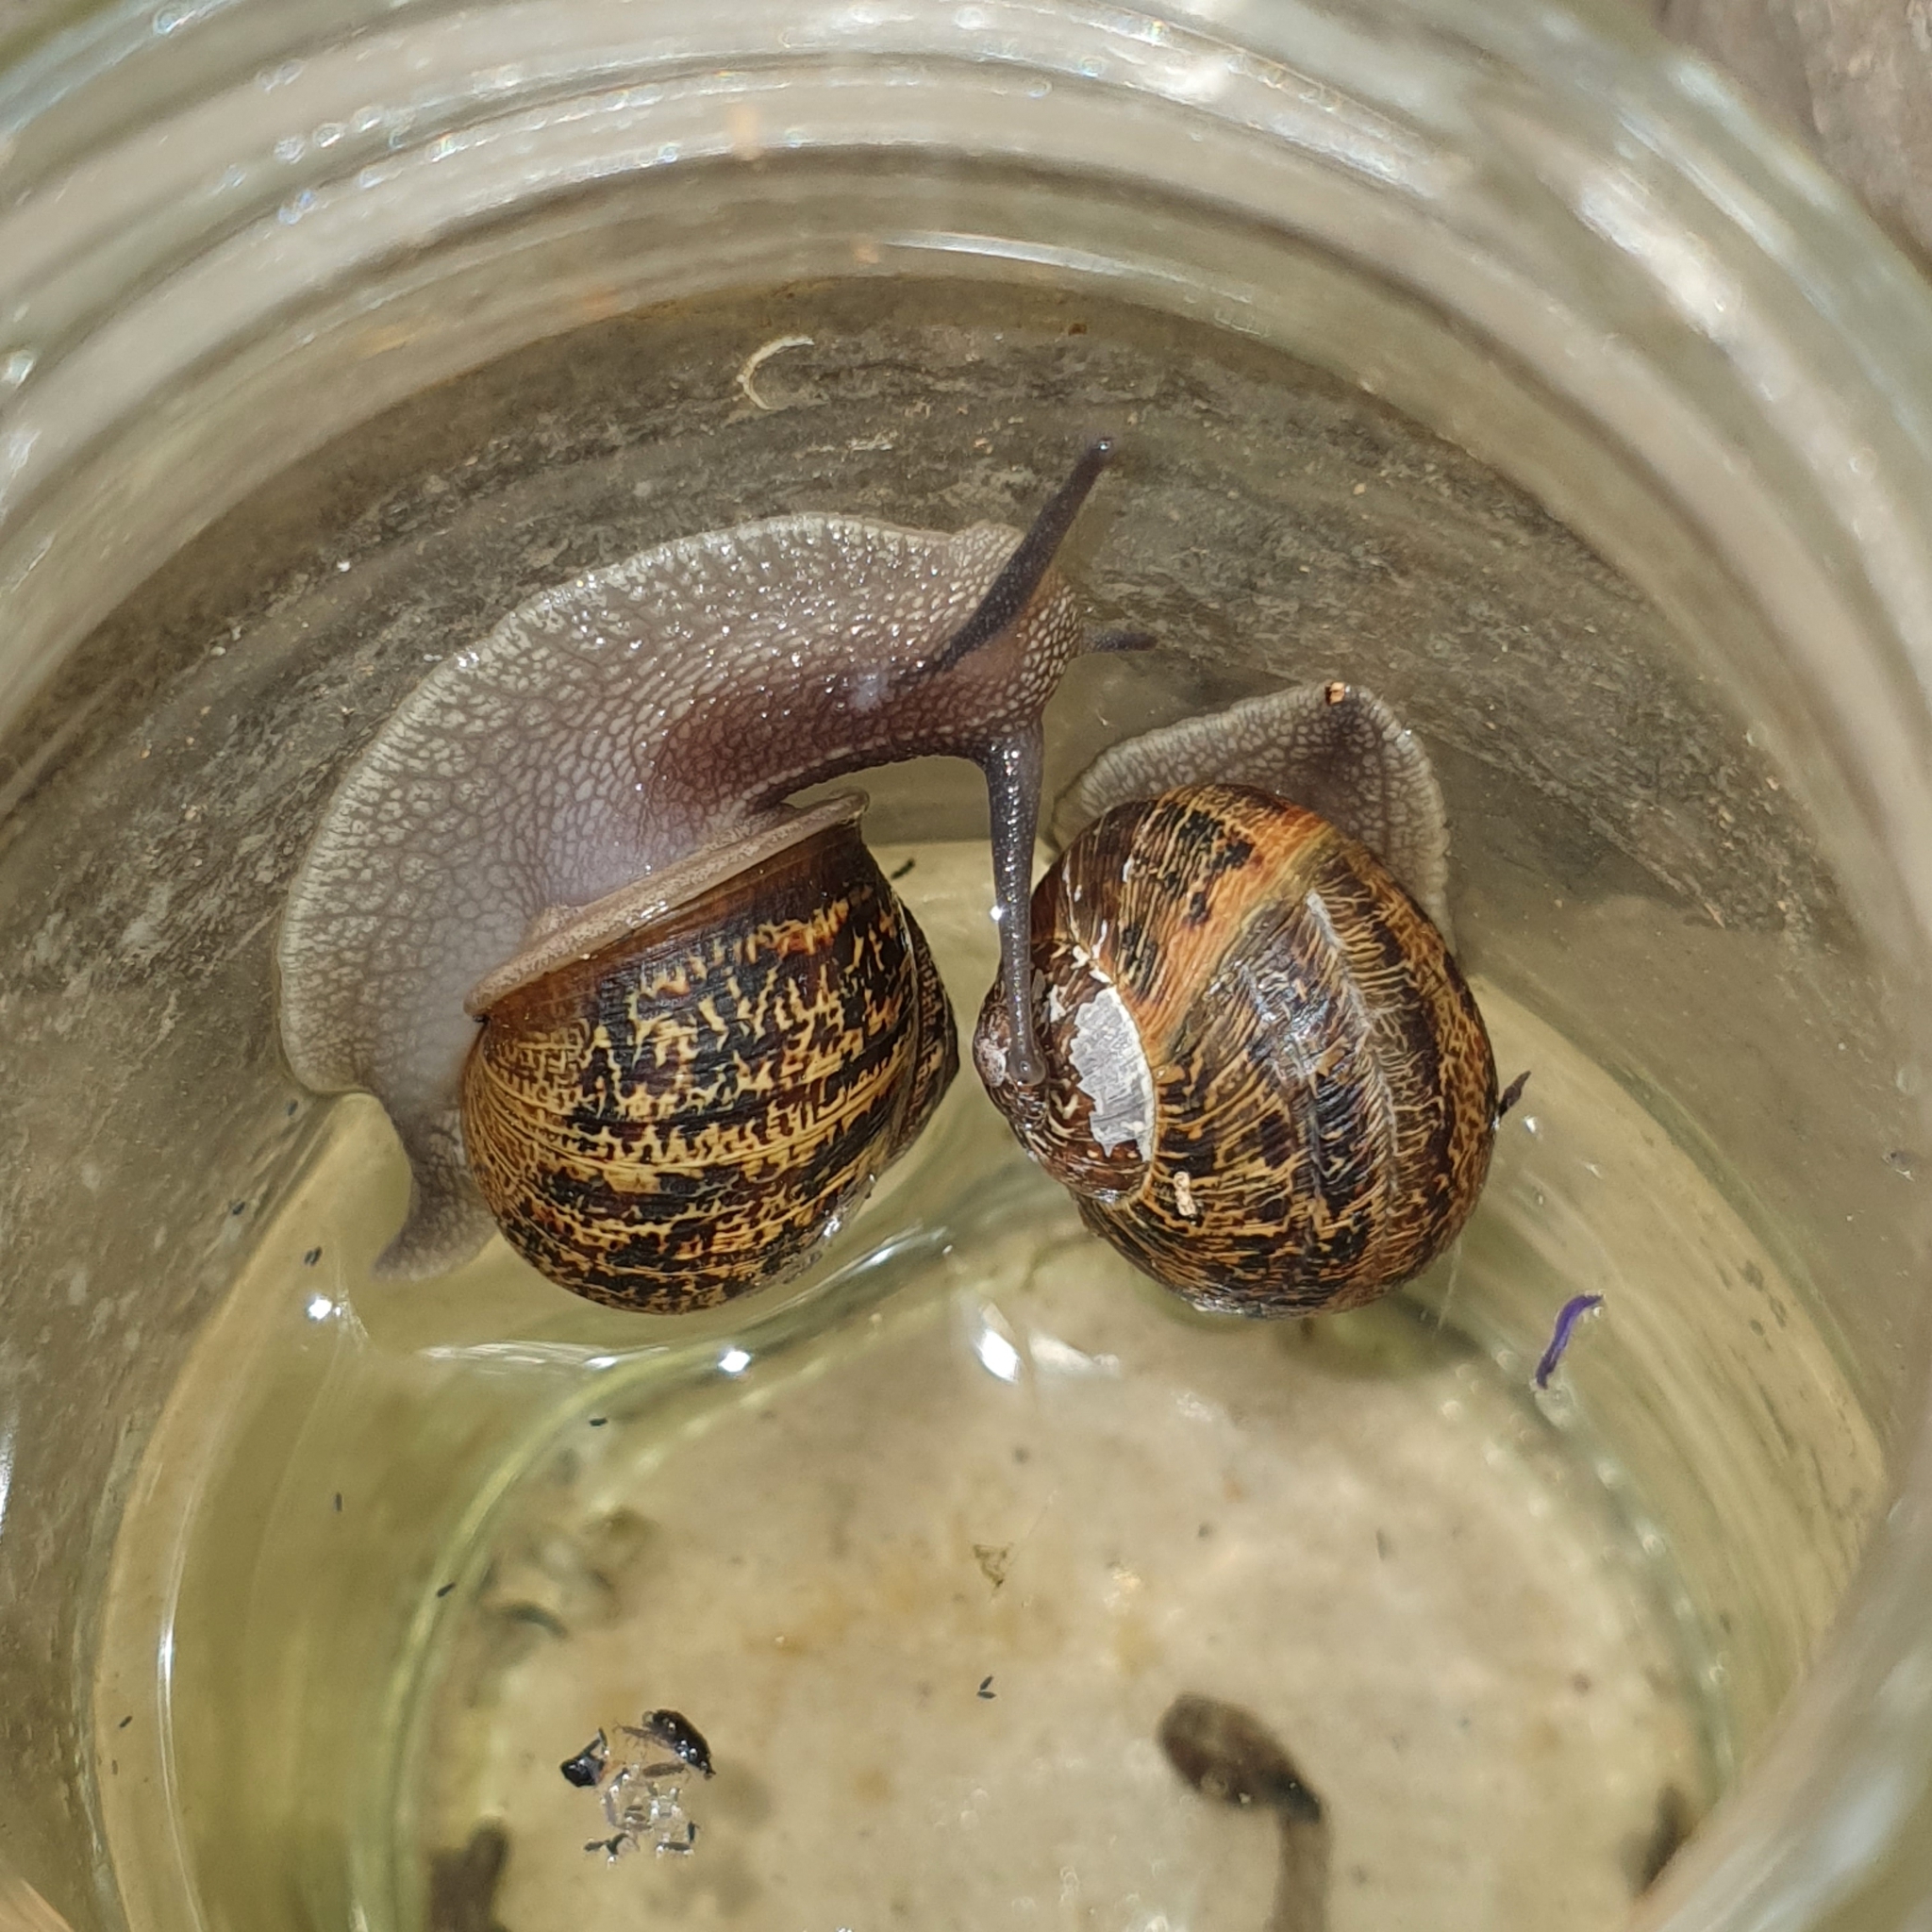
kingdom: Animalia
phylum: Mollusca
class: Gastropoda
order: Stylommatophora
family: Helicidae
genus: Cornu
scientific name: Cornu aspersum
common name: Brown garden snail
